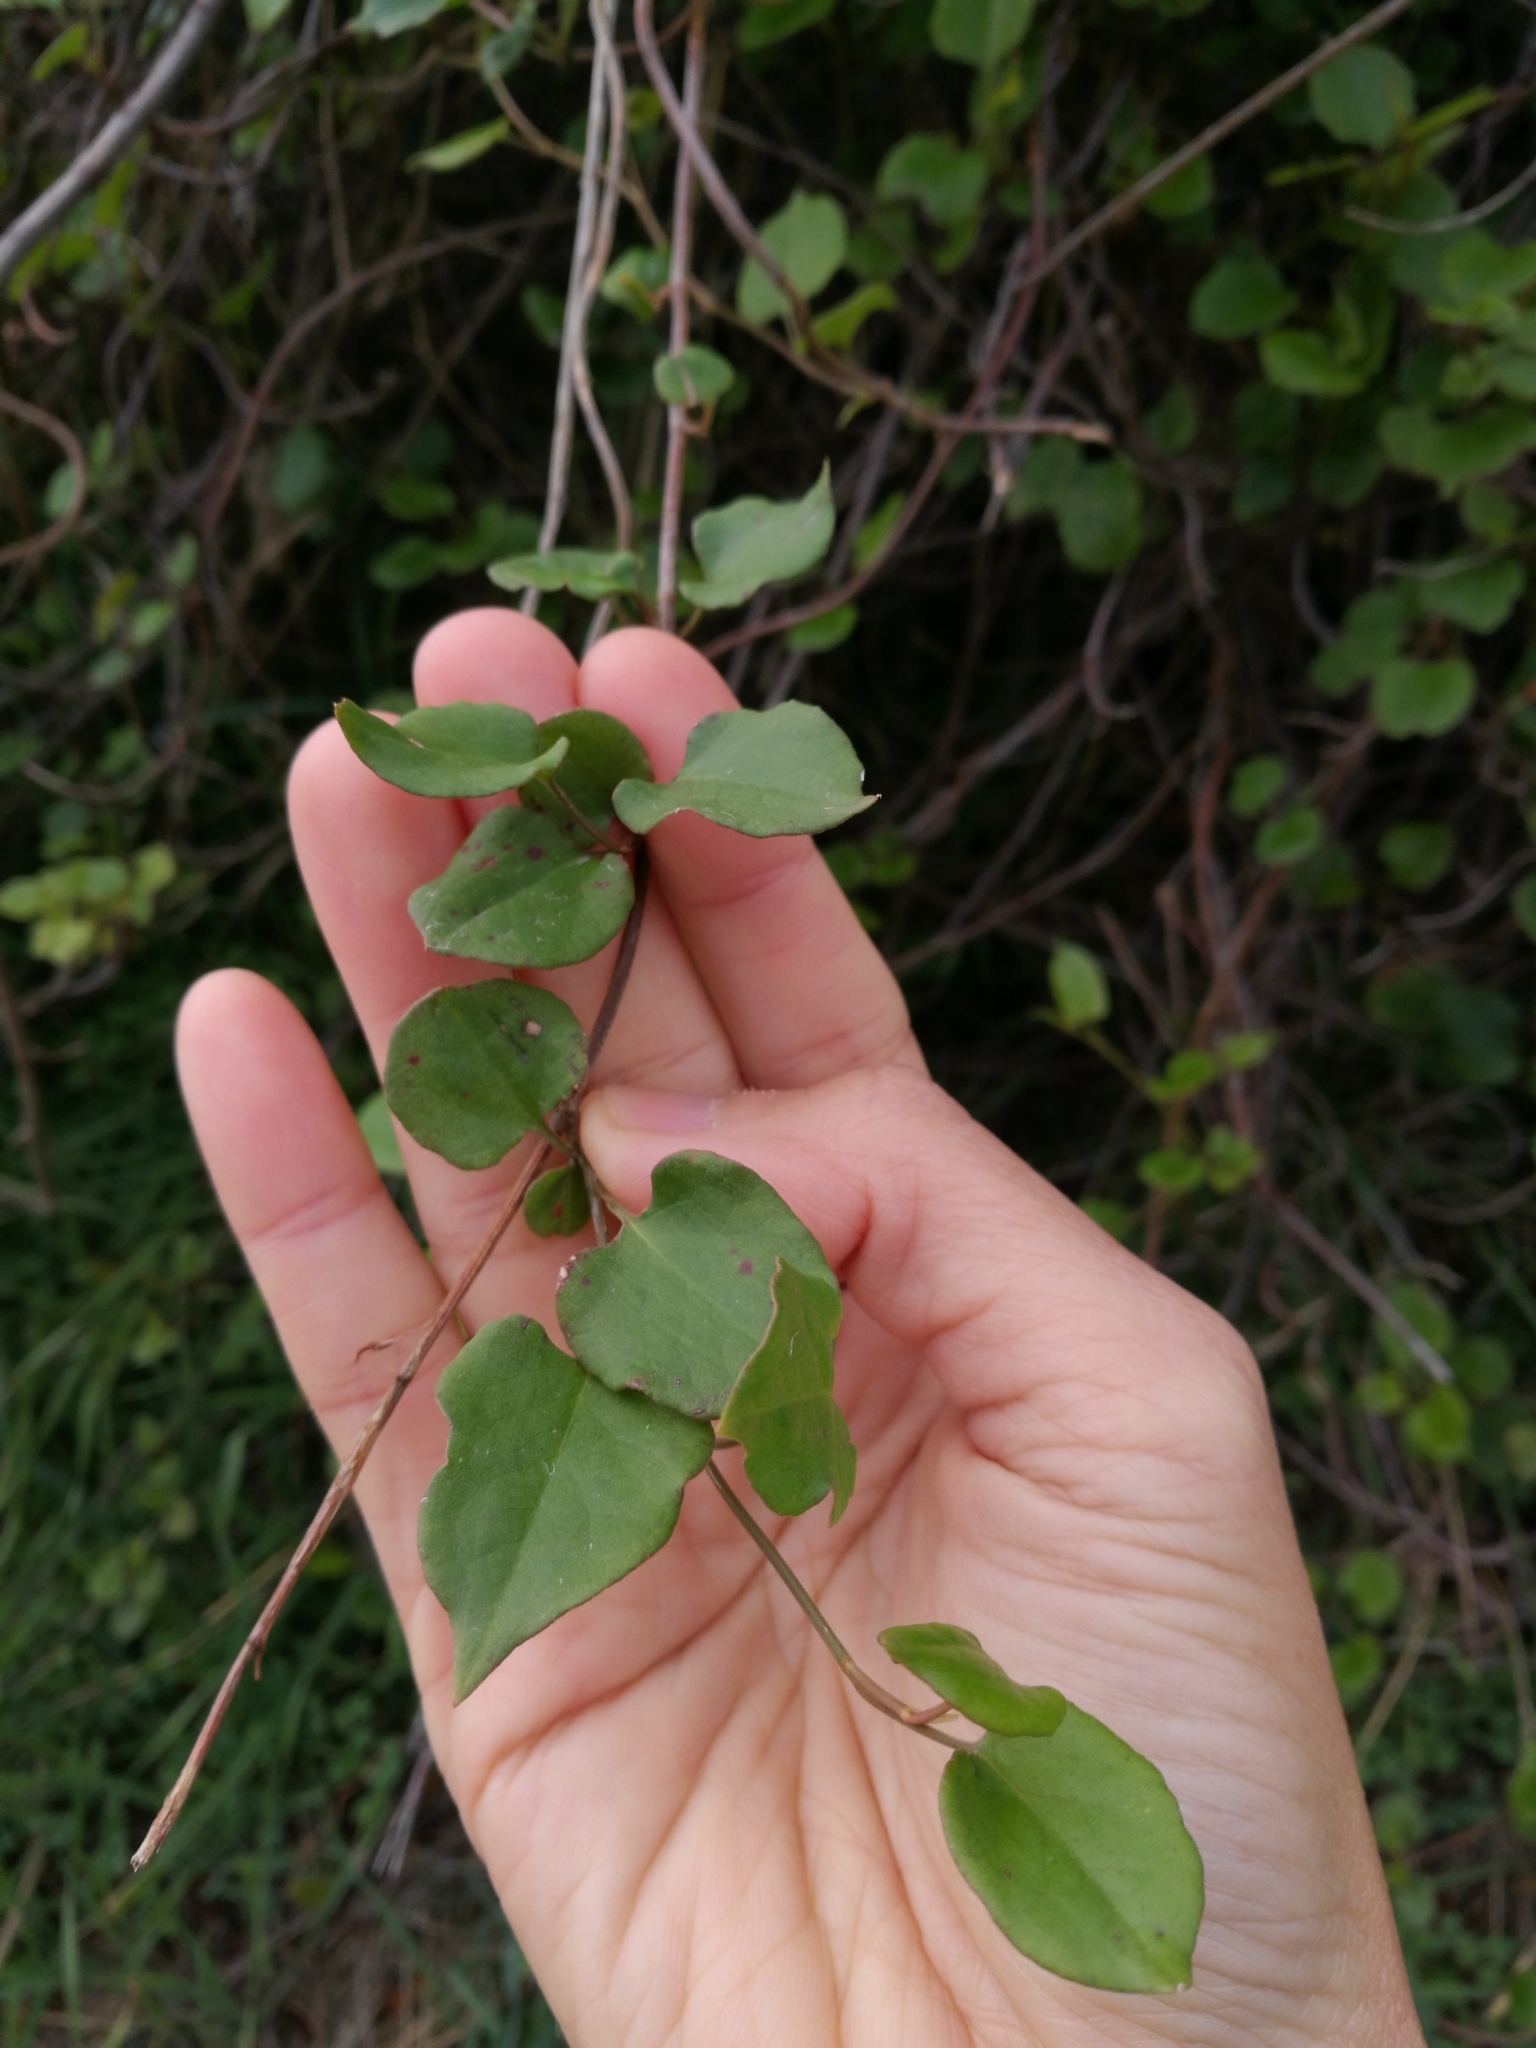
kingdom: Plantae
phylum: Tracheophyta
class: Magnoliopsida
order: Caryophyllales
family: Polygonaceae
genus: Muehlenbeckia
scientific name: Muehlenbeckia australis
